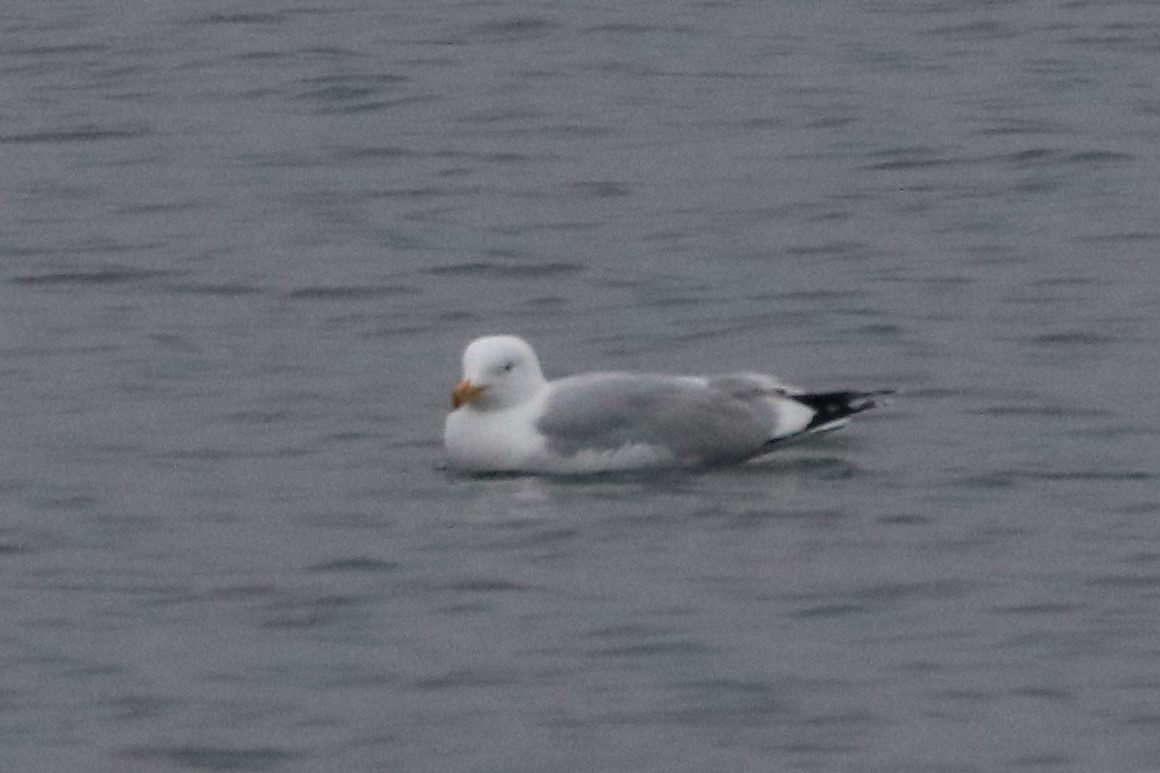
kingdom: Animalia
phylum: Chordata
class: Aves
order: Charadriiformes
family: Laridae
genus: Larus
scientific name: Larus argentatus
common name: Herring gull
